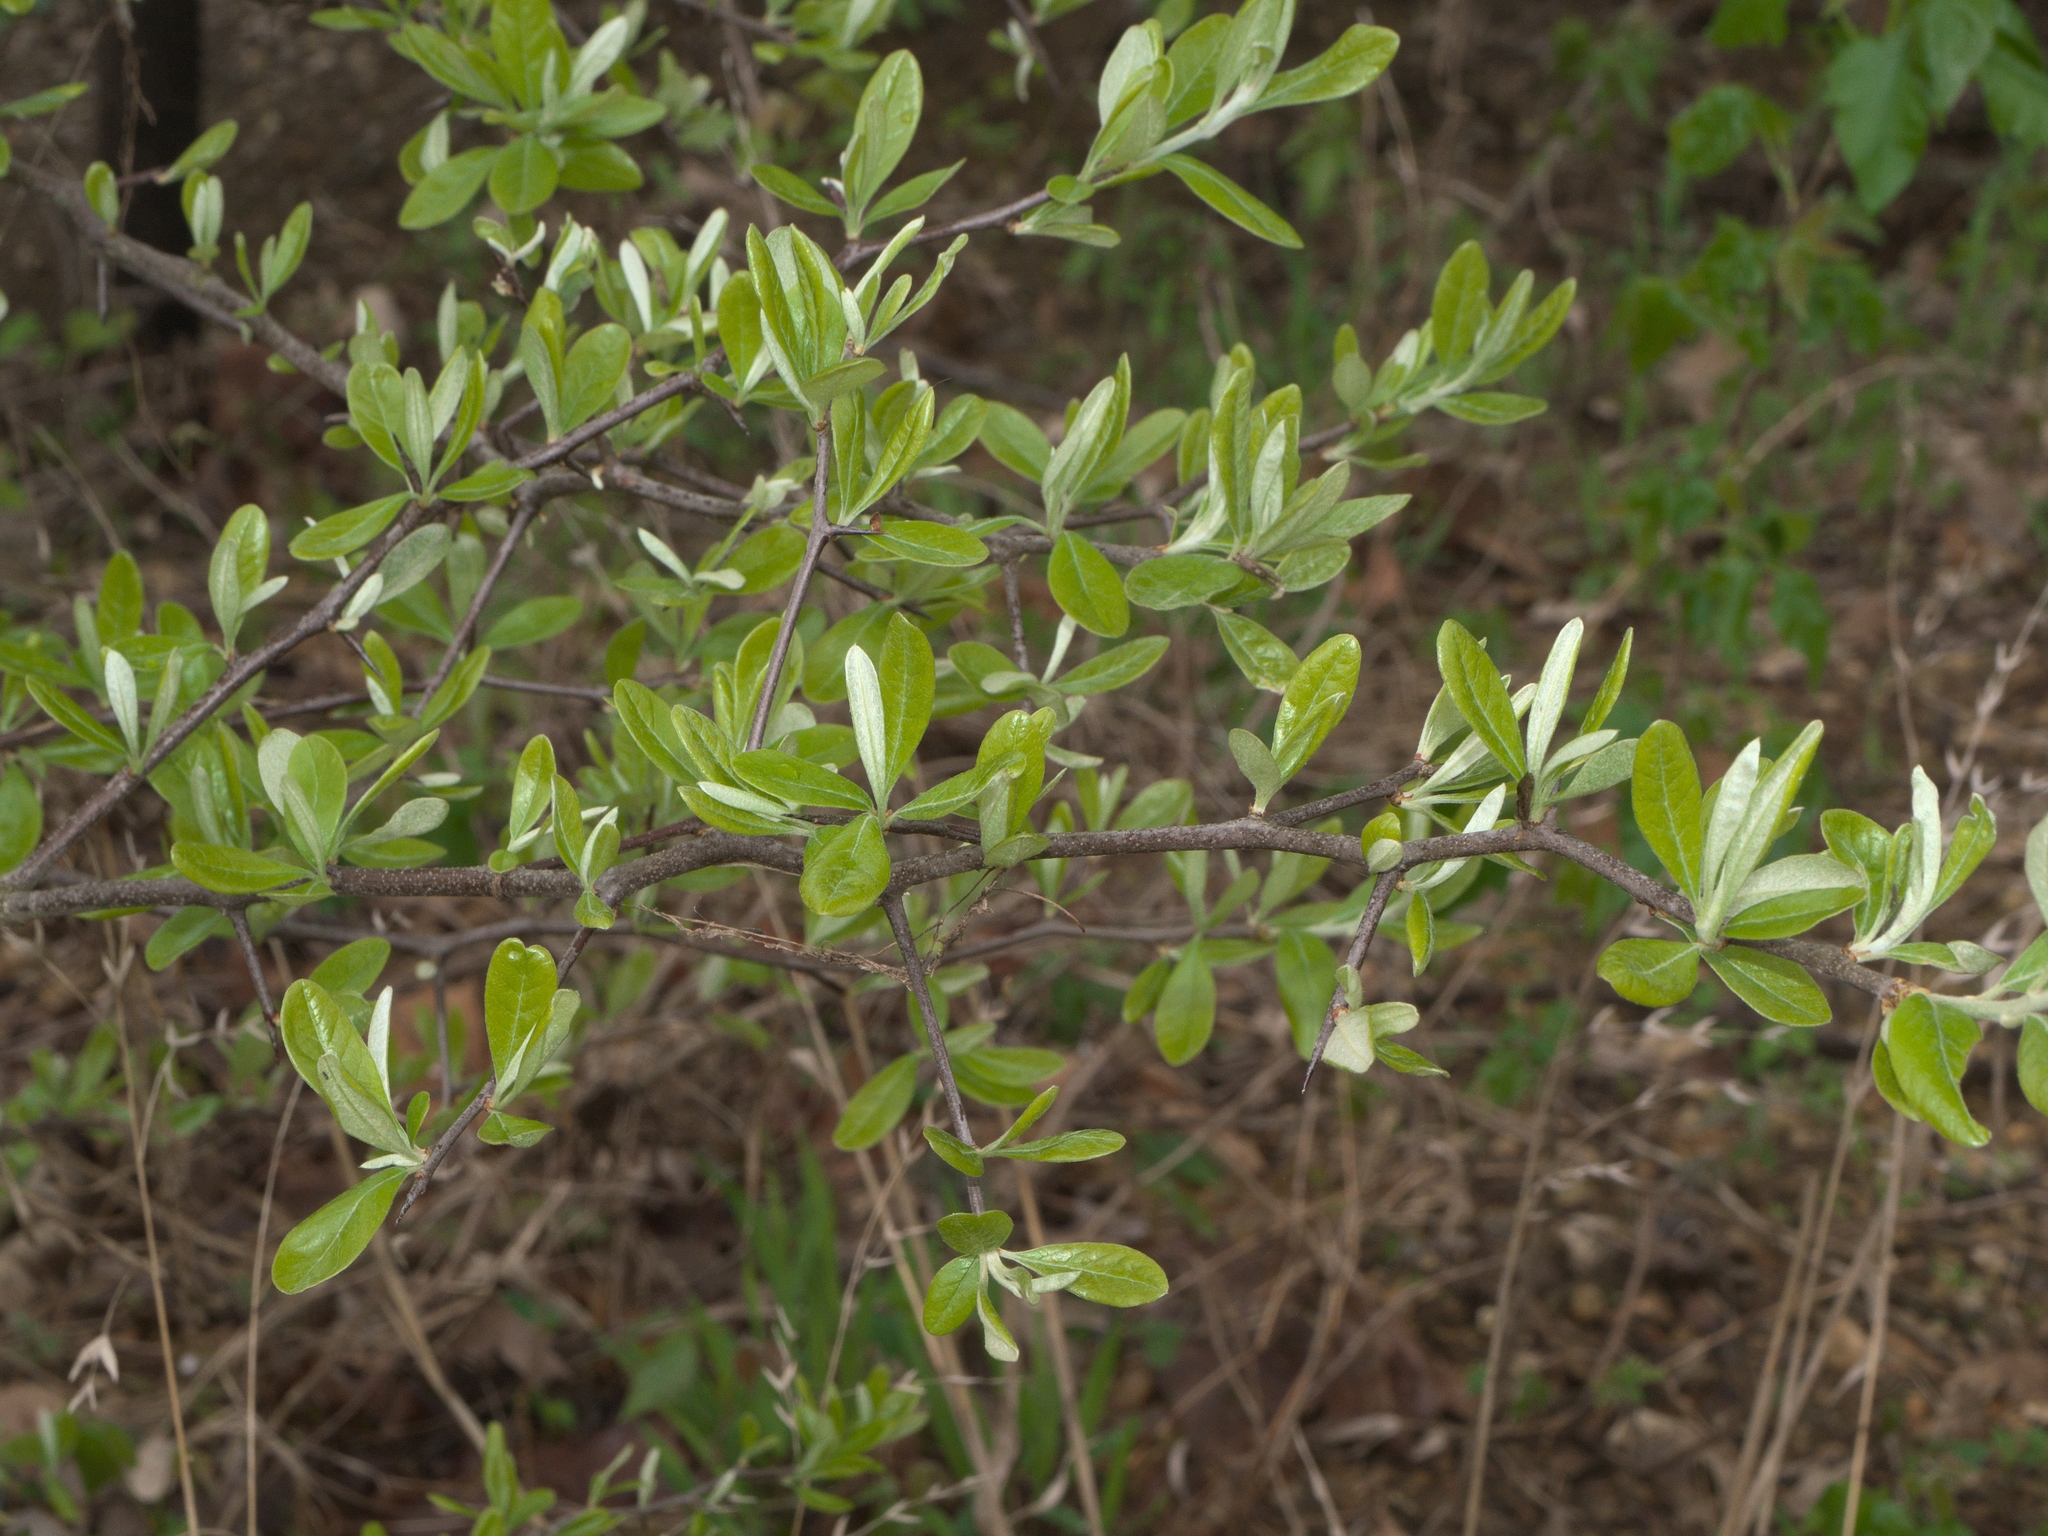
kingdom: Plantae
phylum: Tracheophyta
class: Magnoliopsida
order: Ericales
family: Sapotaceae
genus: Sideroxylon
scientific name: Sideroxylon lanuginosum
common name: Chittamwood
